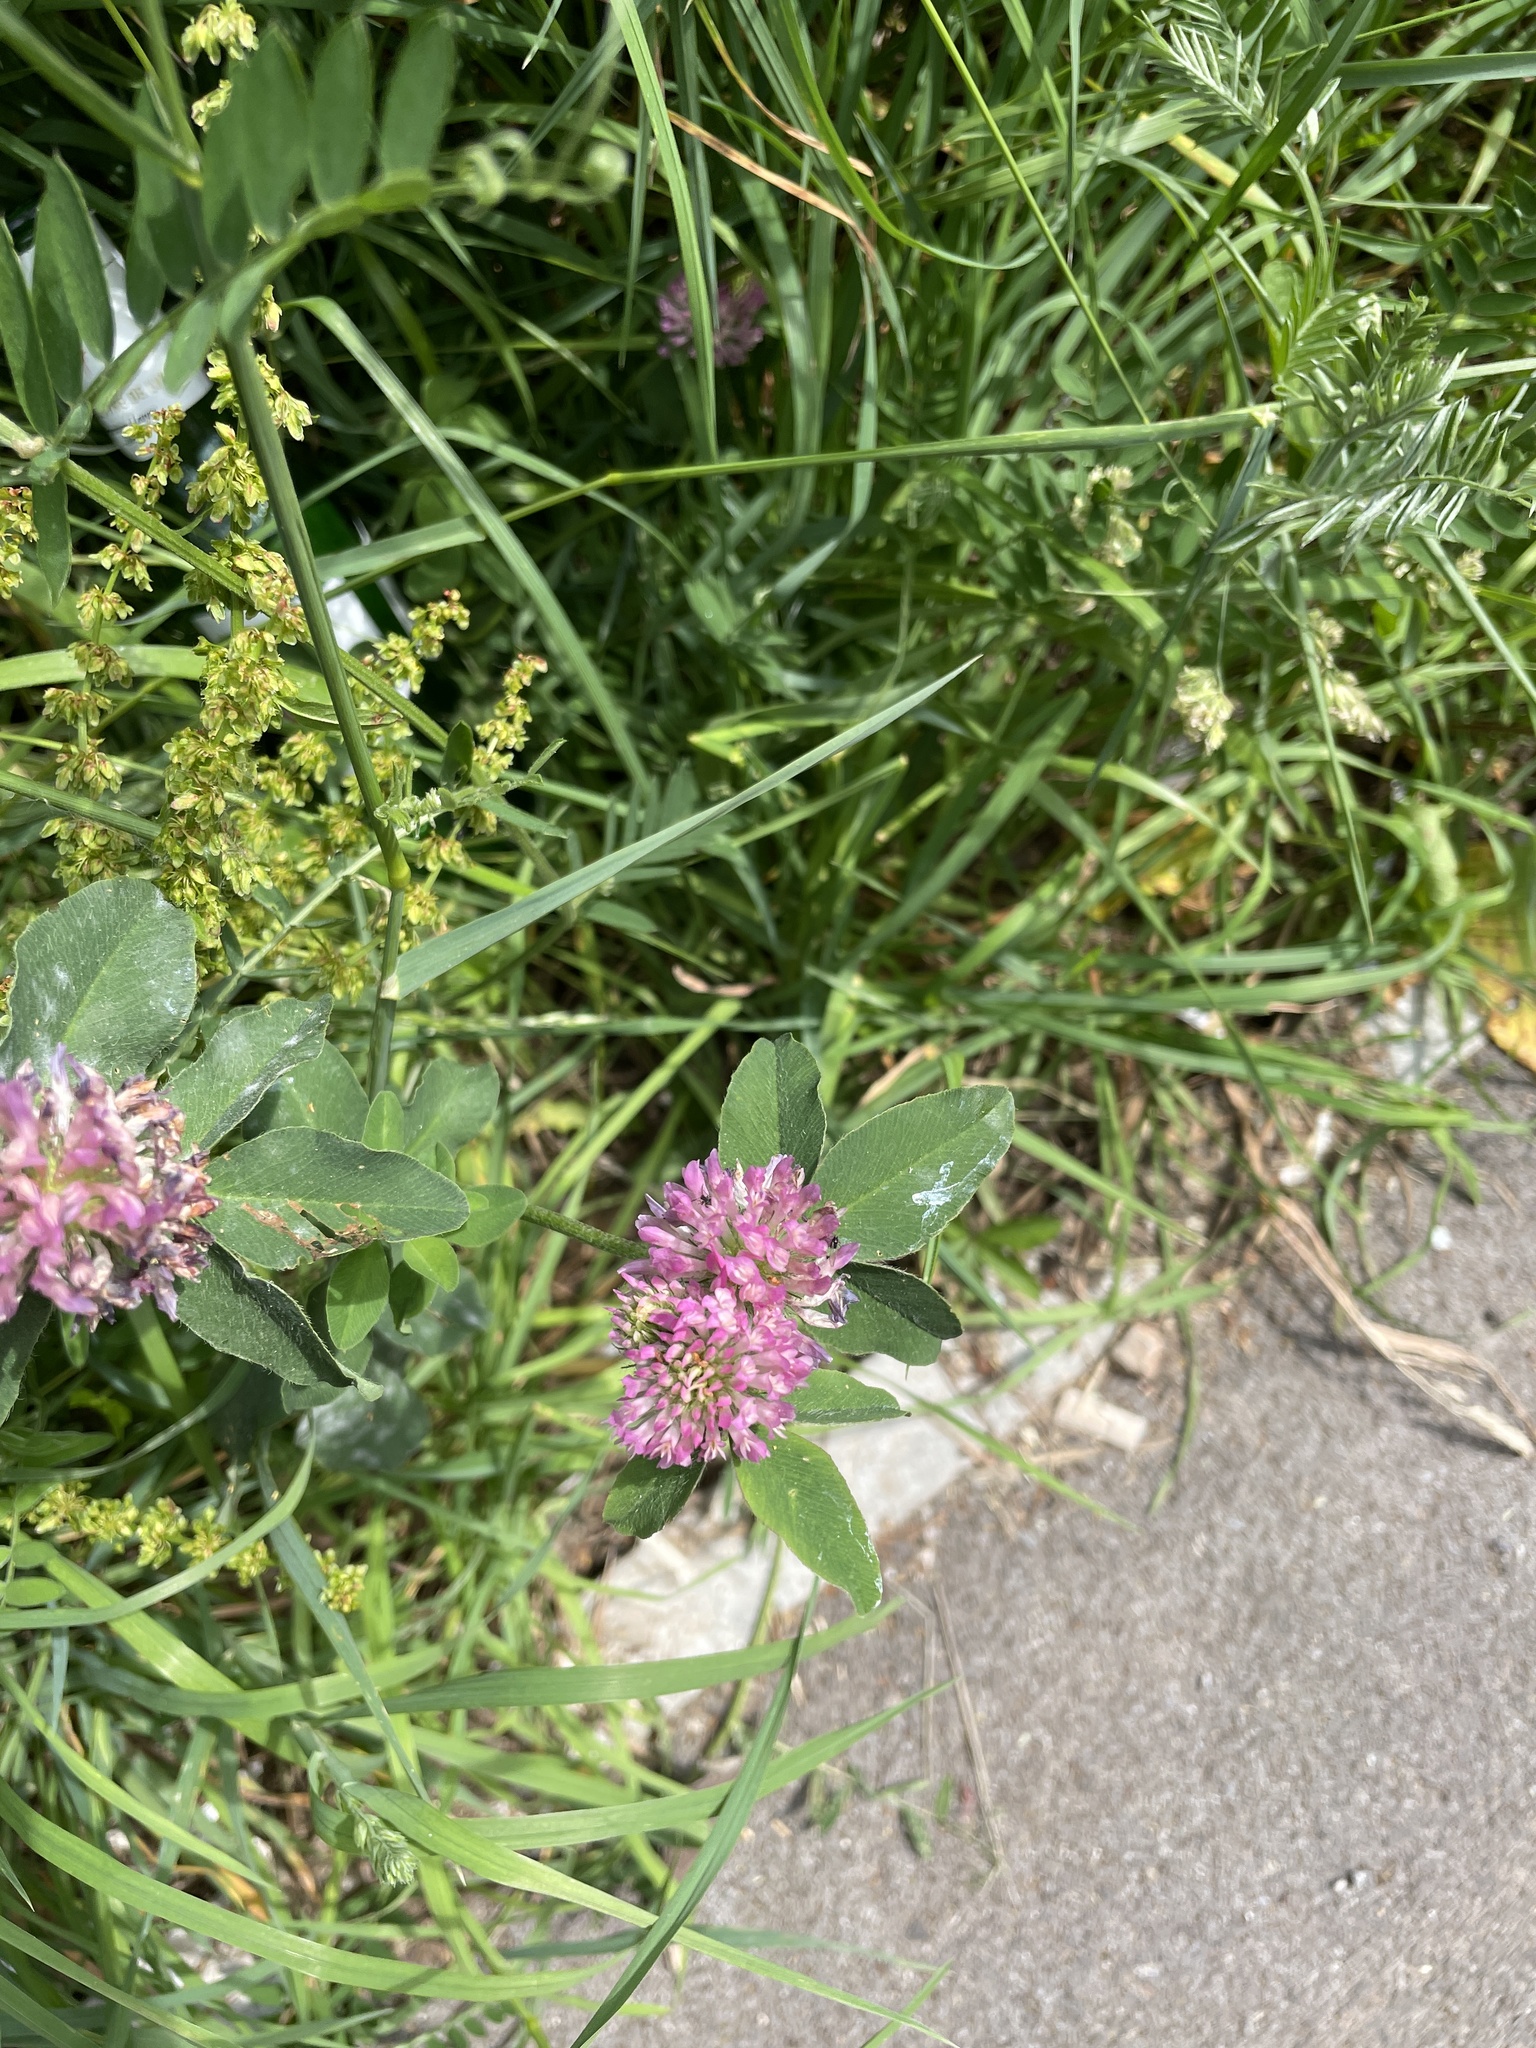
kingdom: Plantae
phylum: Tracheophyta
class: Magnoliopsida
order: Fabales
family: Fabaceae
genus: Trifolium
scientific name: Trifolium pratense
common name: Red clover
